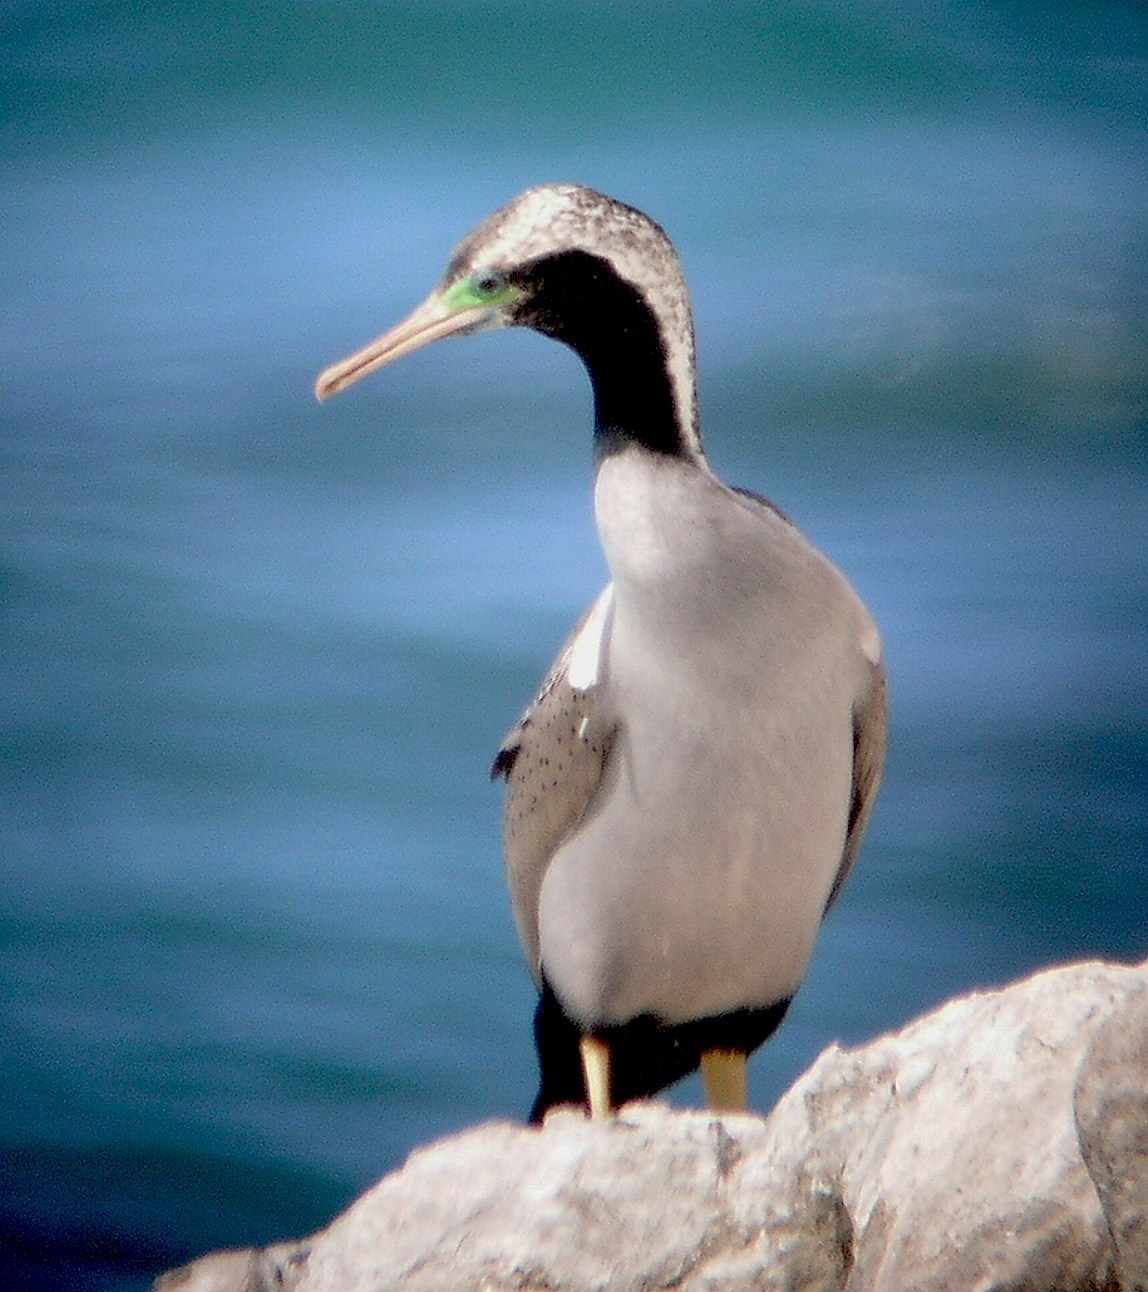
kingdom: Animalia
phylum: Chordata
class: Aves
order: Suliformes
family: Phalacrocoracidae
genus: Phalacrocorax
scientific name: Phalacrocorax punctatus
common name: Spotted shag
